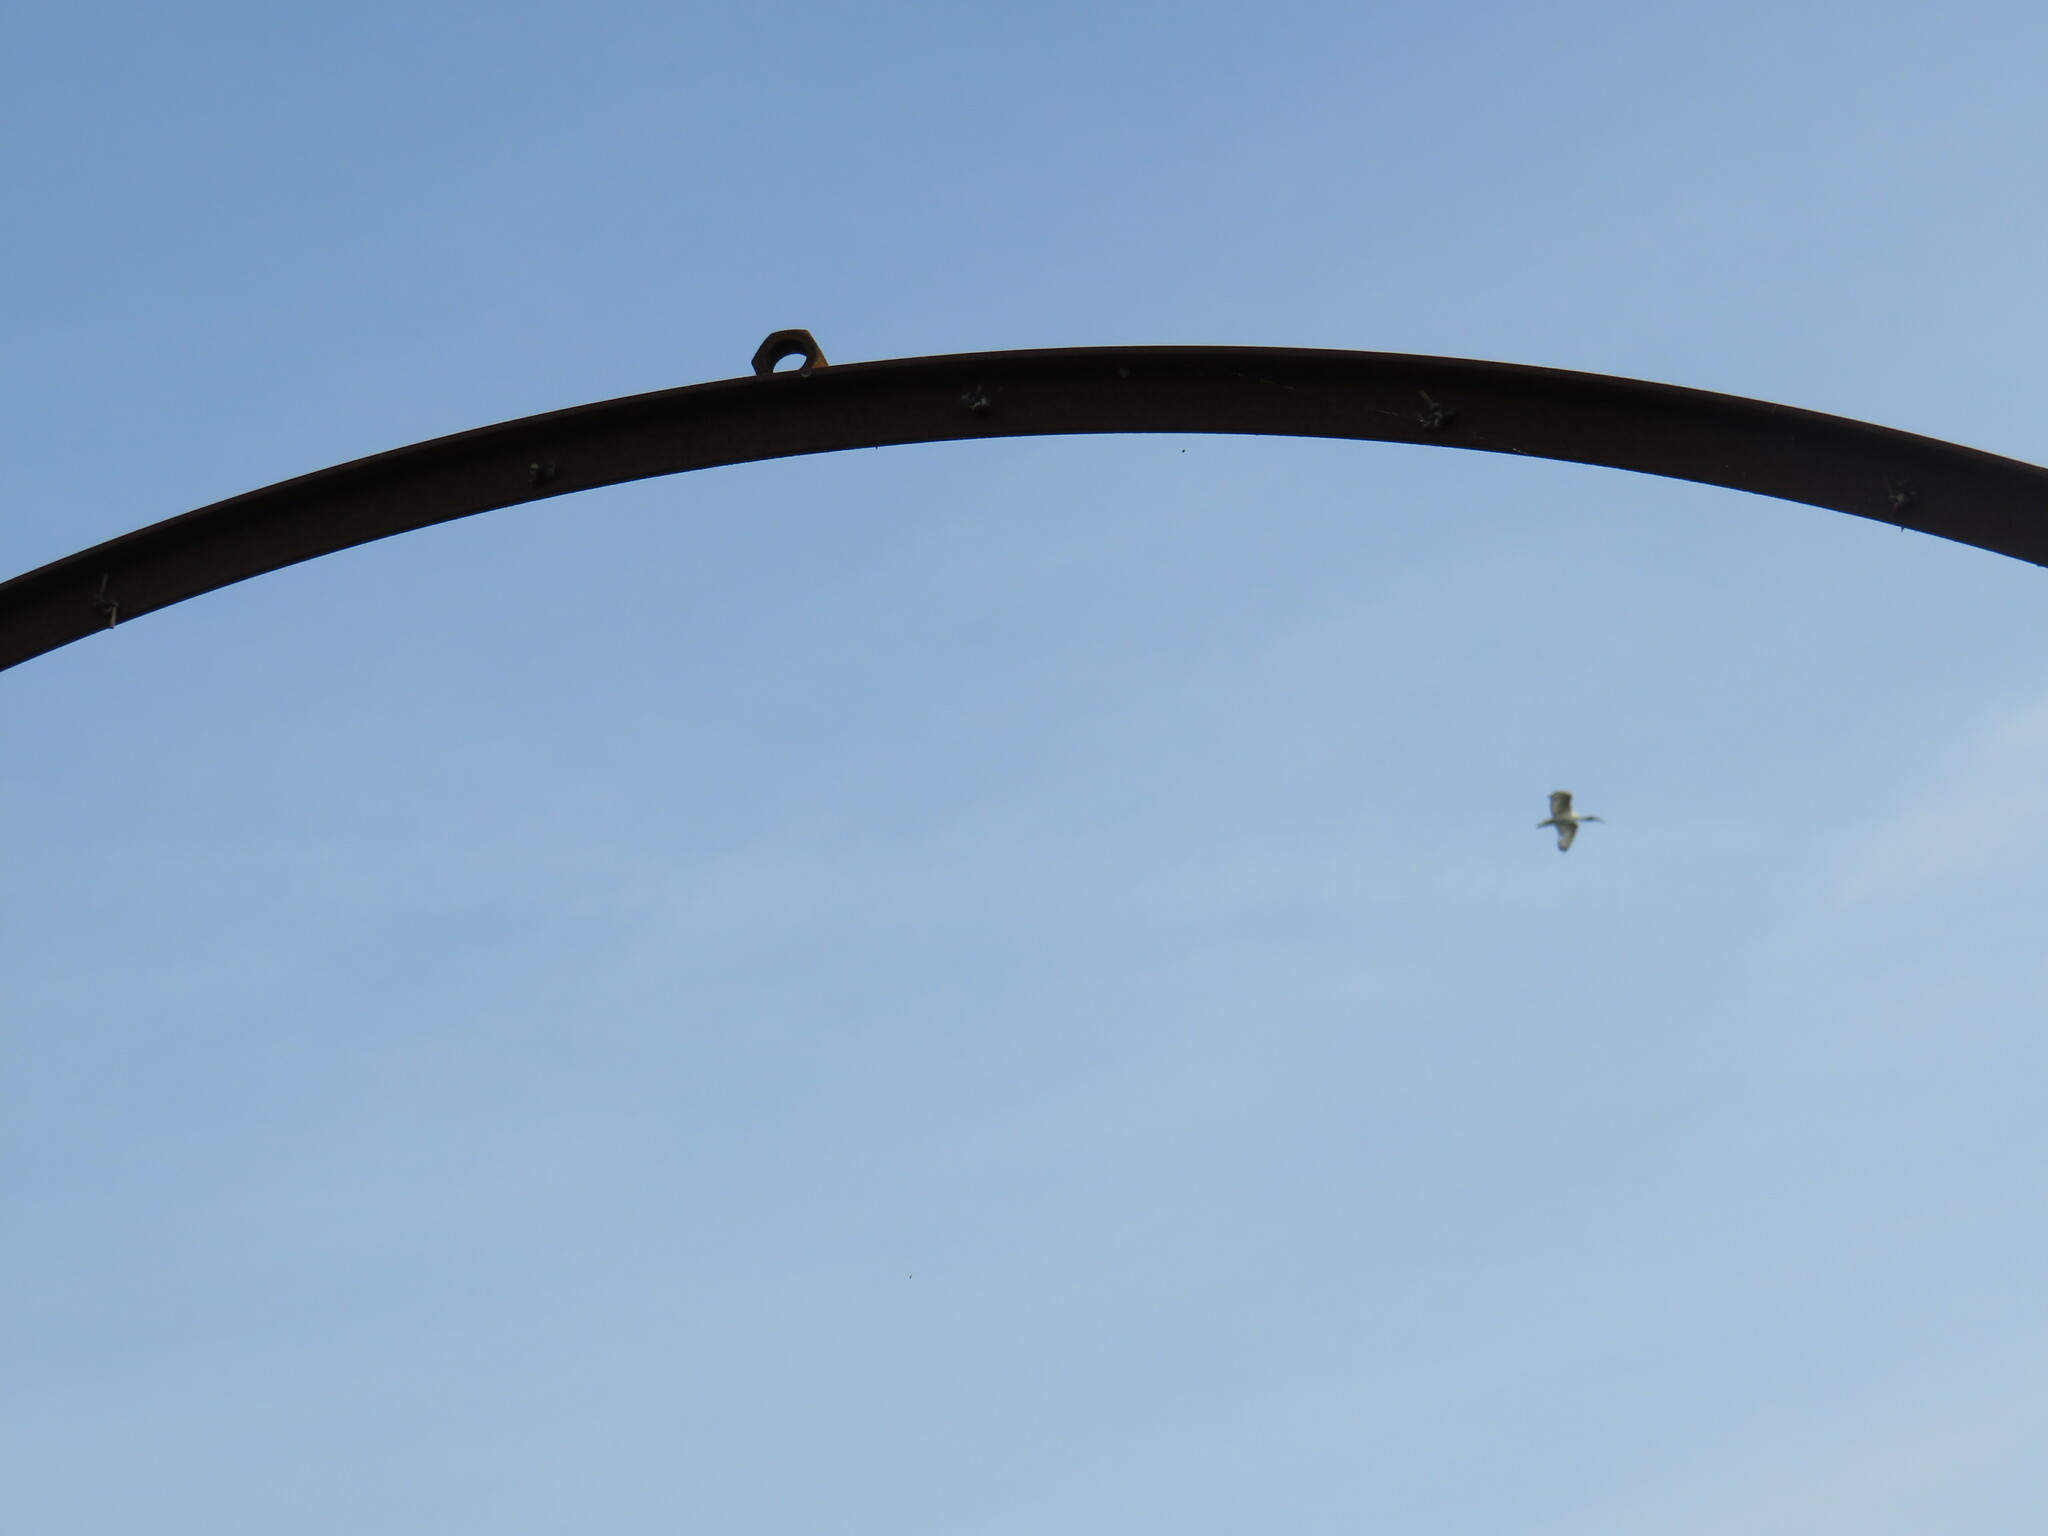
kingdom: Animalia
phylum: Chordata
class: Aves
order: Pelecaniformes
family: Threskiornithidae
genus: Threskiornis
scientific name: Threskiornis aethiopicus
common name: Sacred ibis
